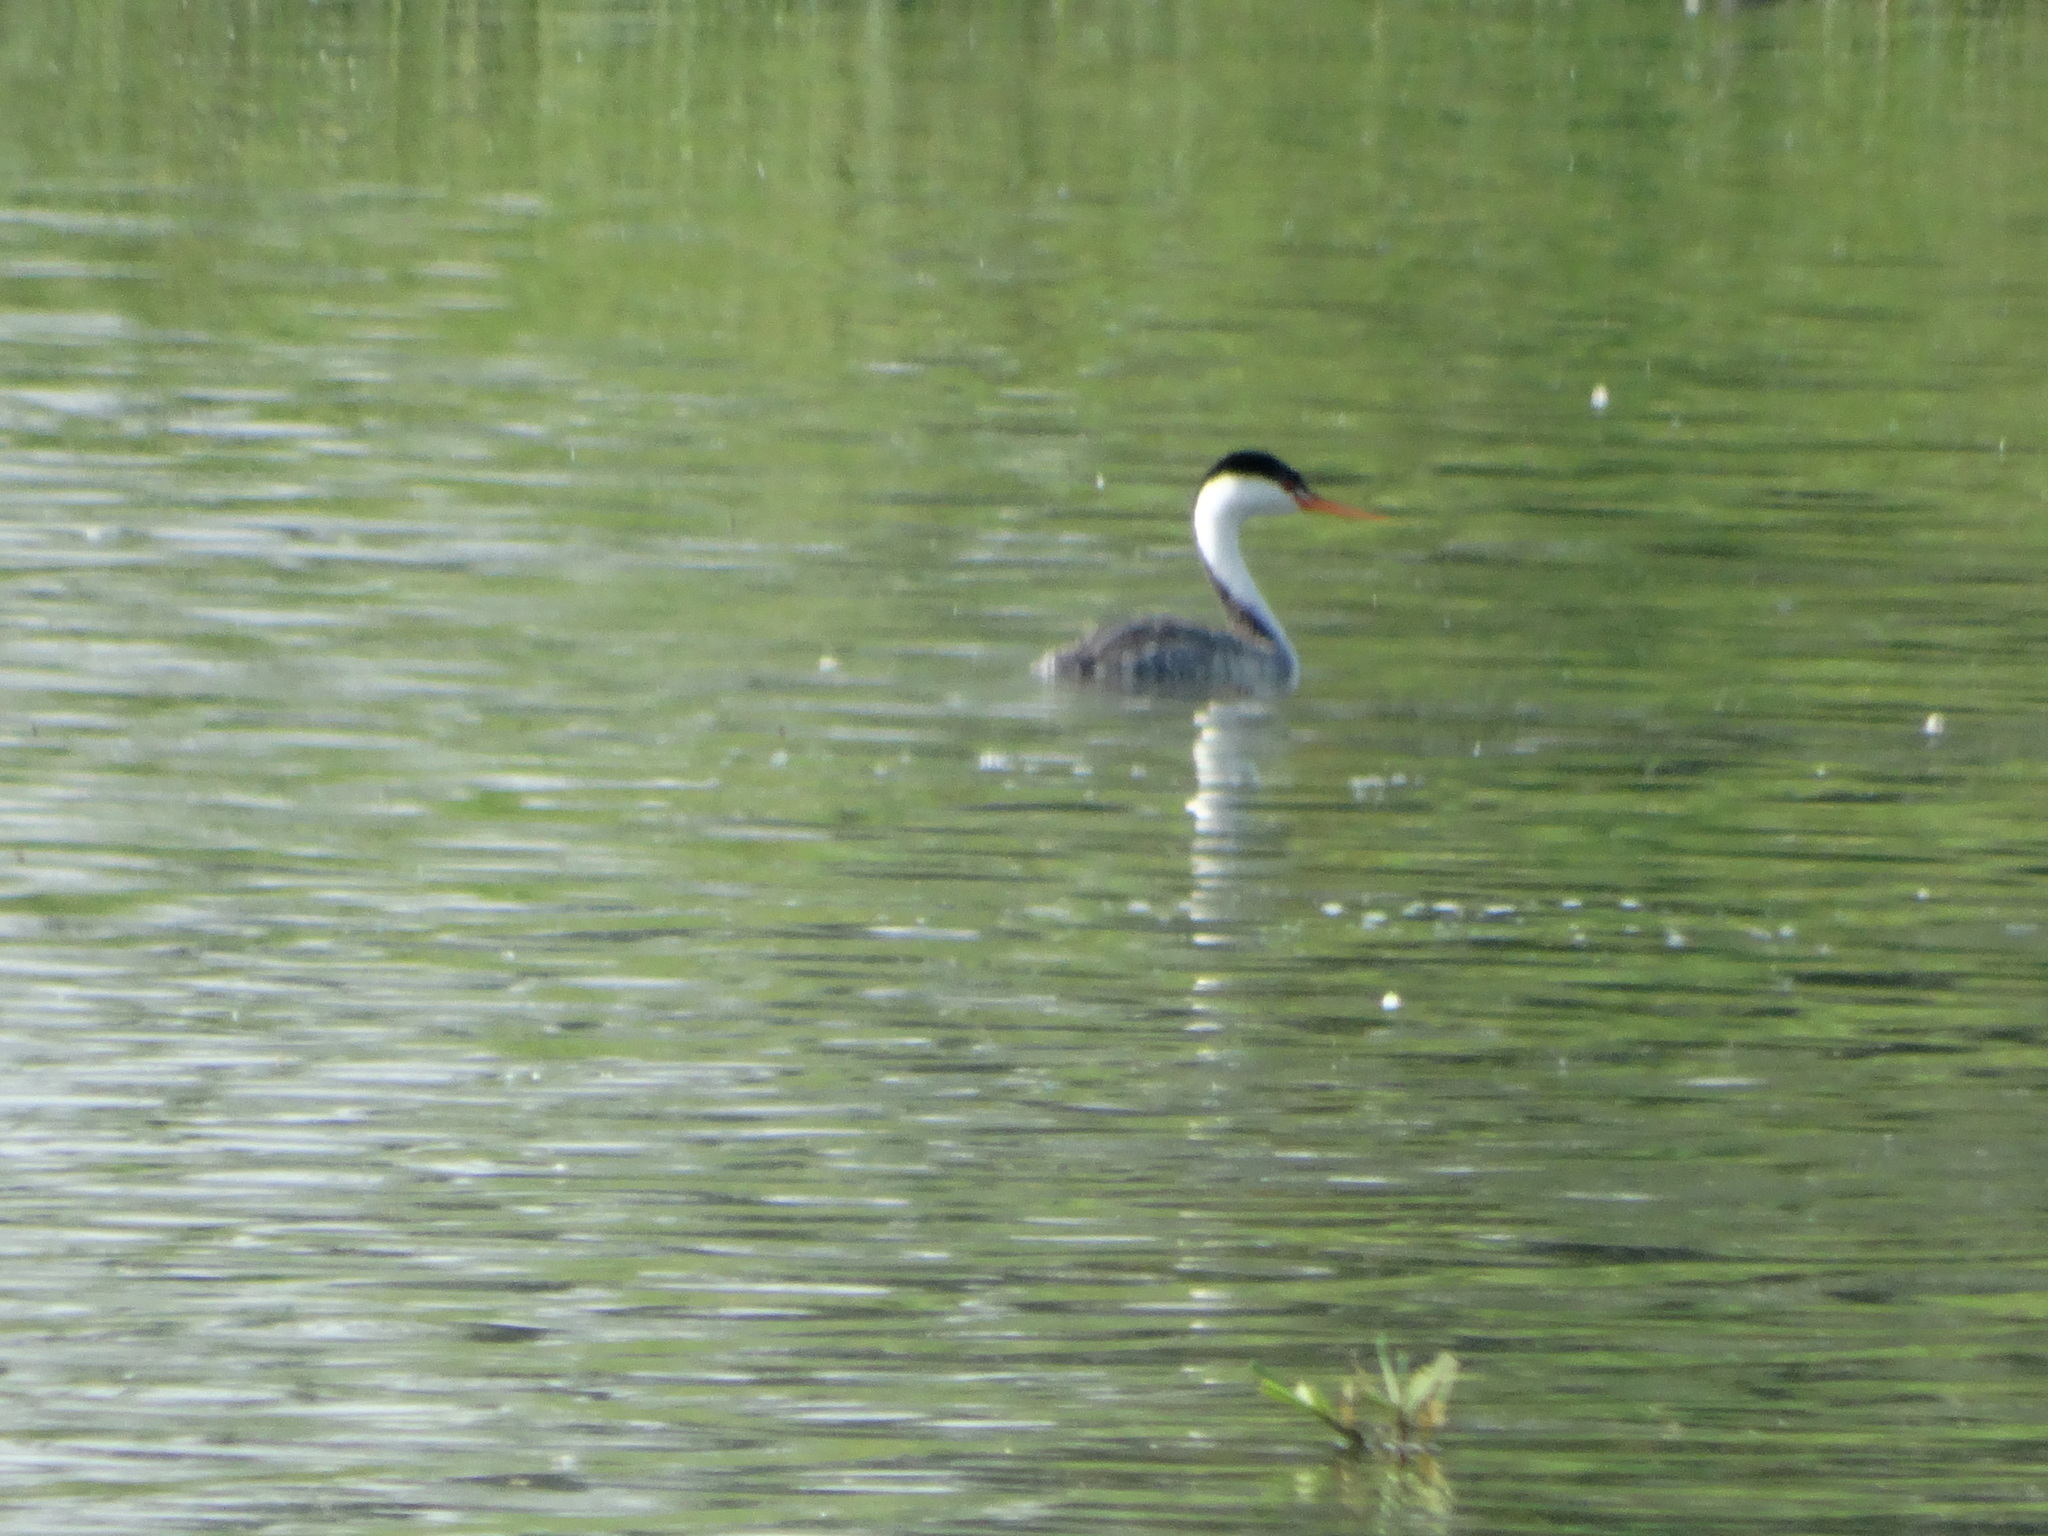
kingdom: Animalia
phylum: Chordata
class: Aves
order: Podicipediformes
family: Podicipedidae
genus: Aechmophorus
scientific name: Aechmophorus occidentalis
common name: Western grebe
